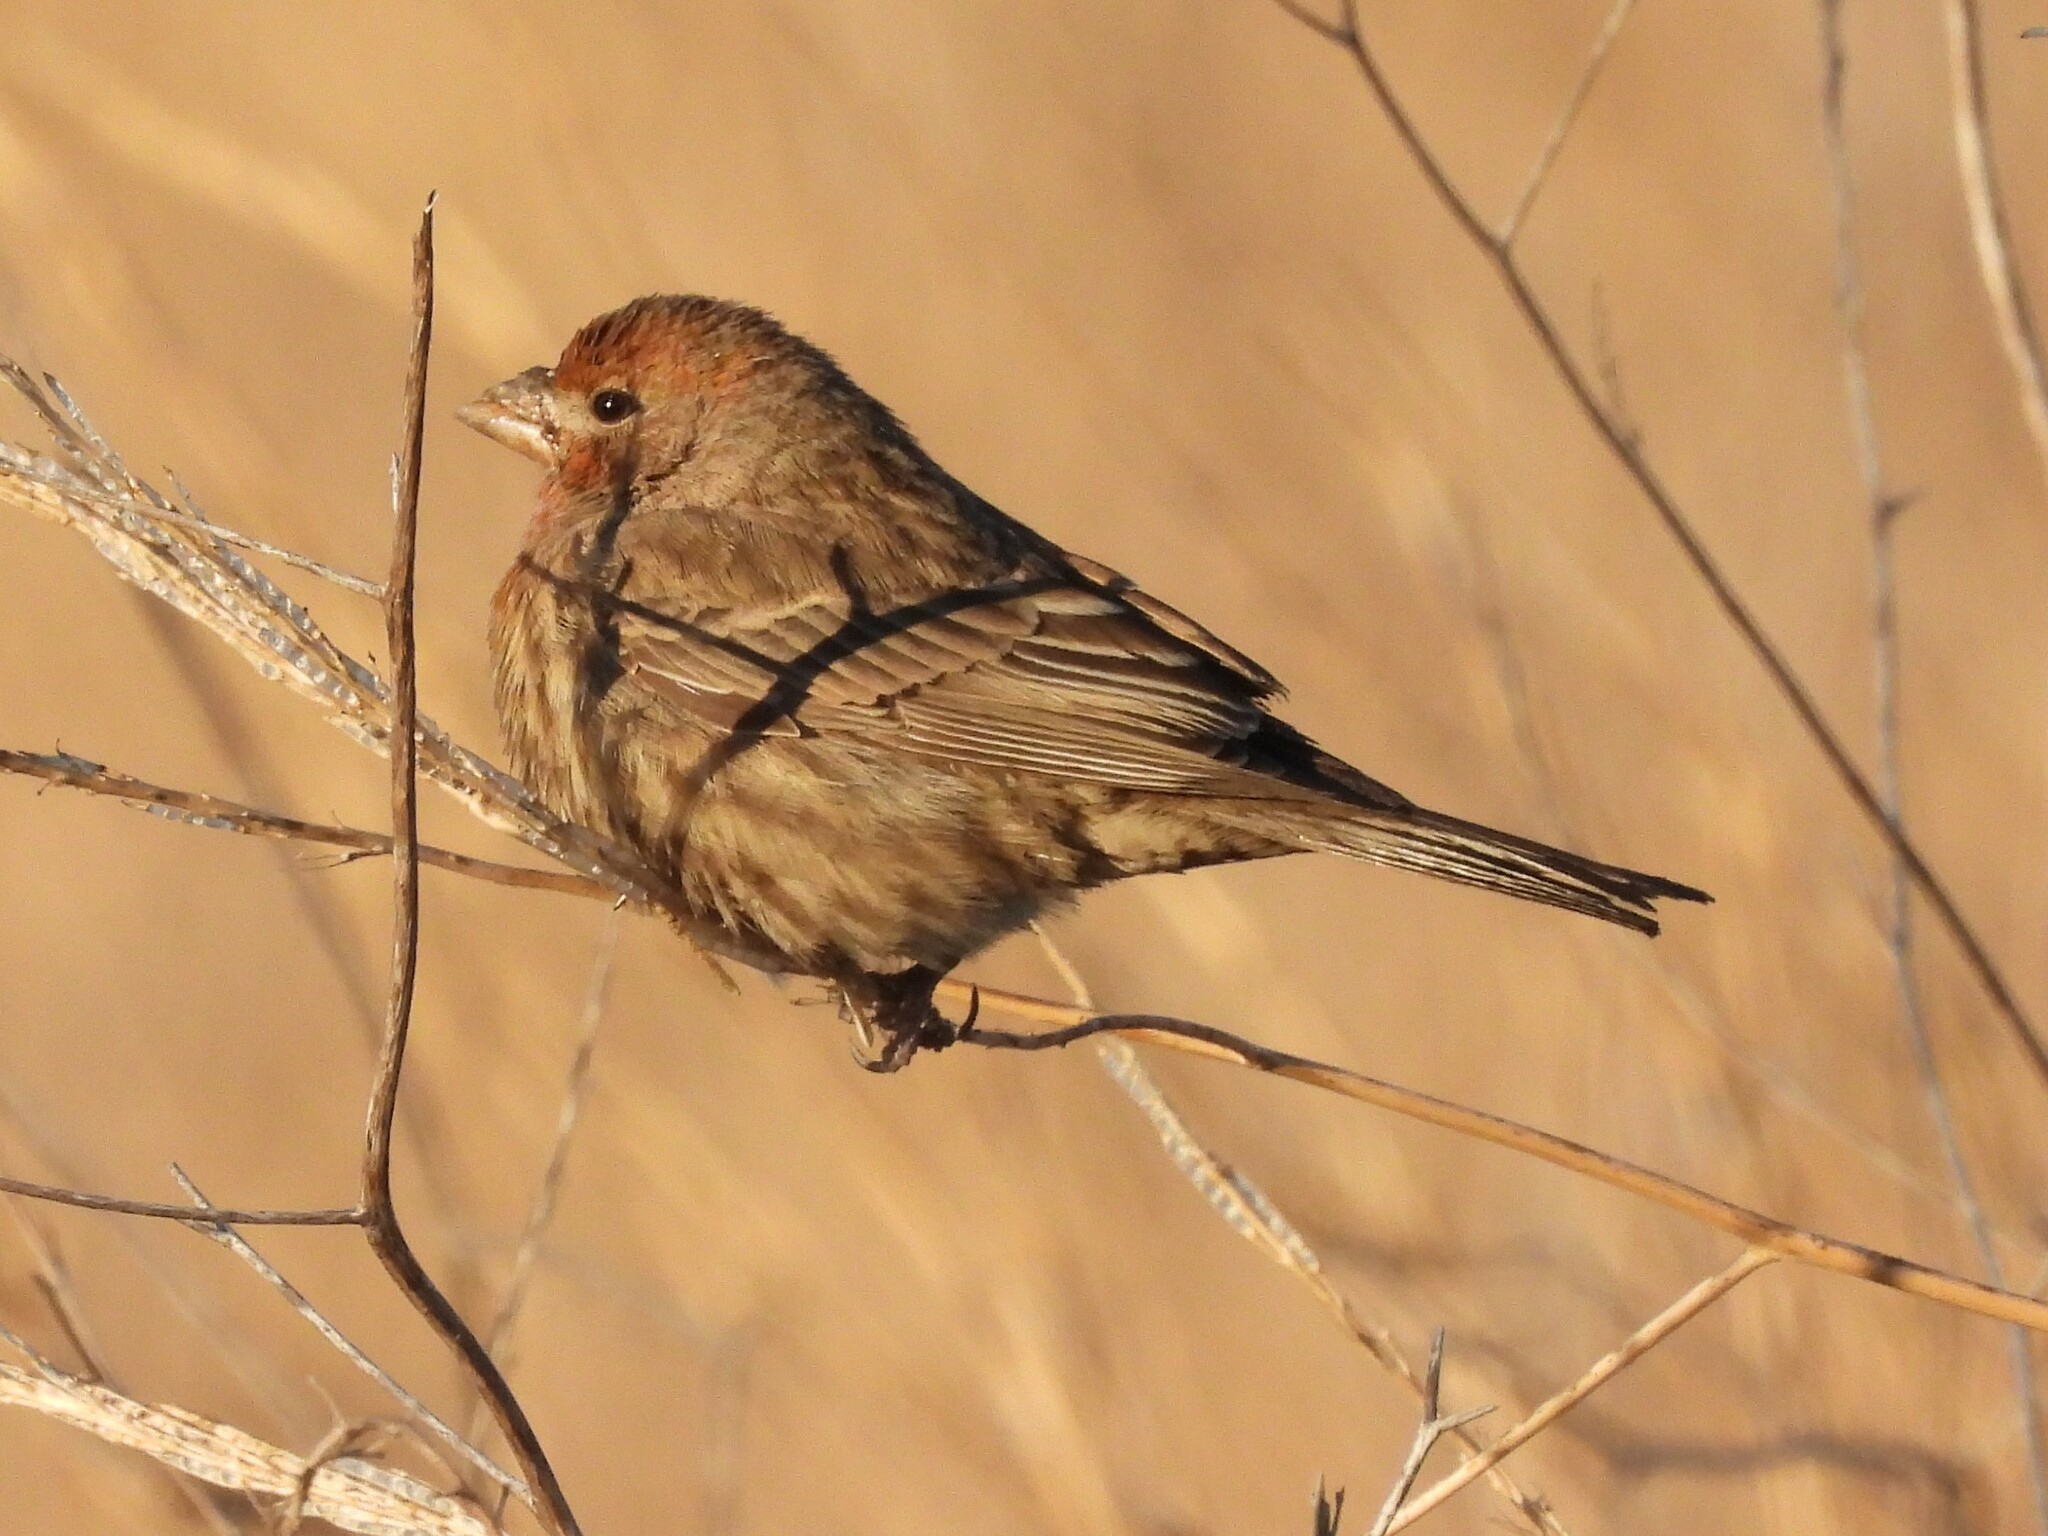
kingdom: Animalia
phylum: Chordata
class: Aves
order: Passeriformes
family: Fringillidae
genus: Haemorhous
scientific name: Haemorhous mexicanus
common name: House finch
